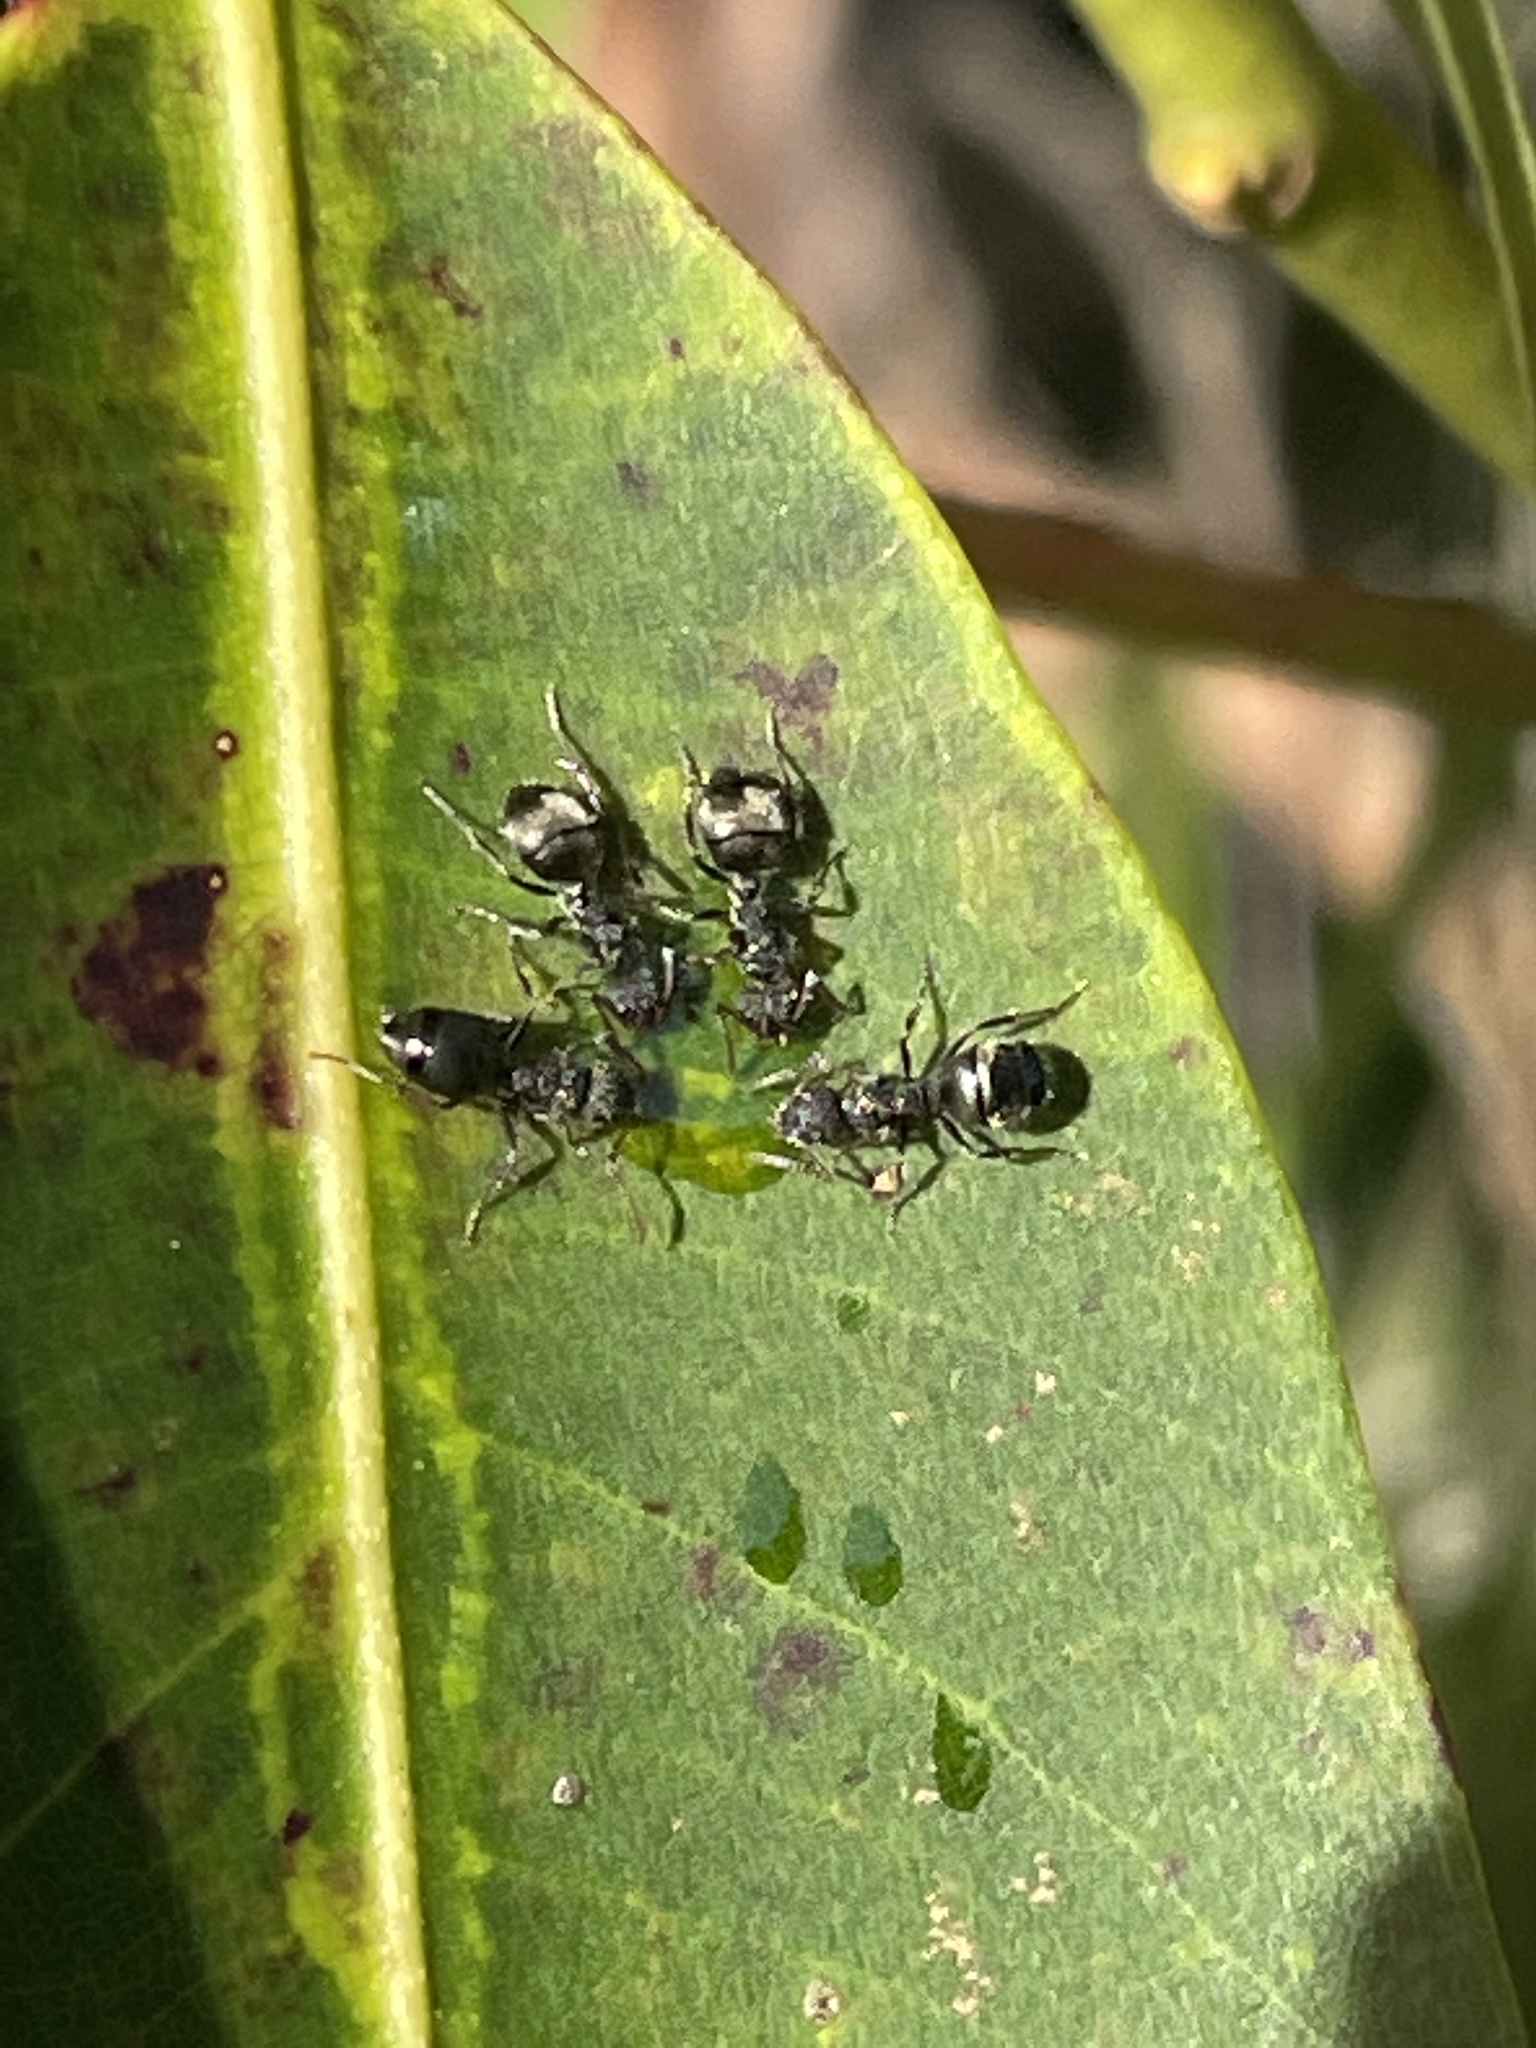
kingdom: Animalia
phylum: Arthropoda
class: Insecta
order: Hymenoptera
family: Formicidae
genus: Dolichoderus
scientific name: Dolichoderus scrobiculatus
